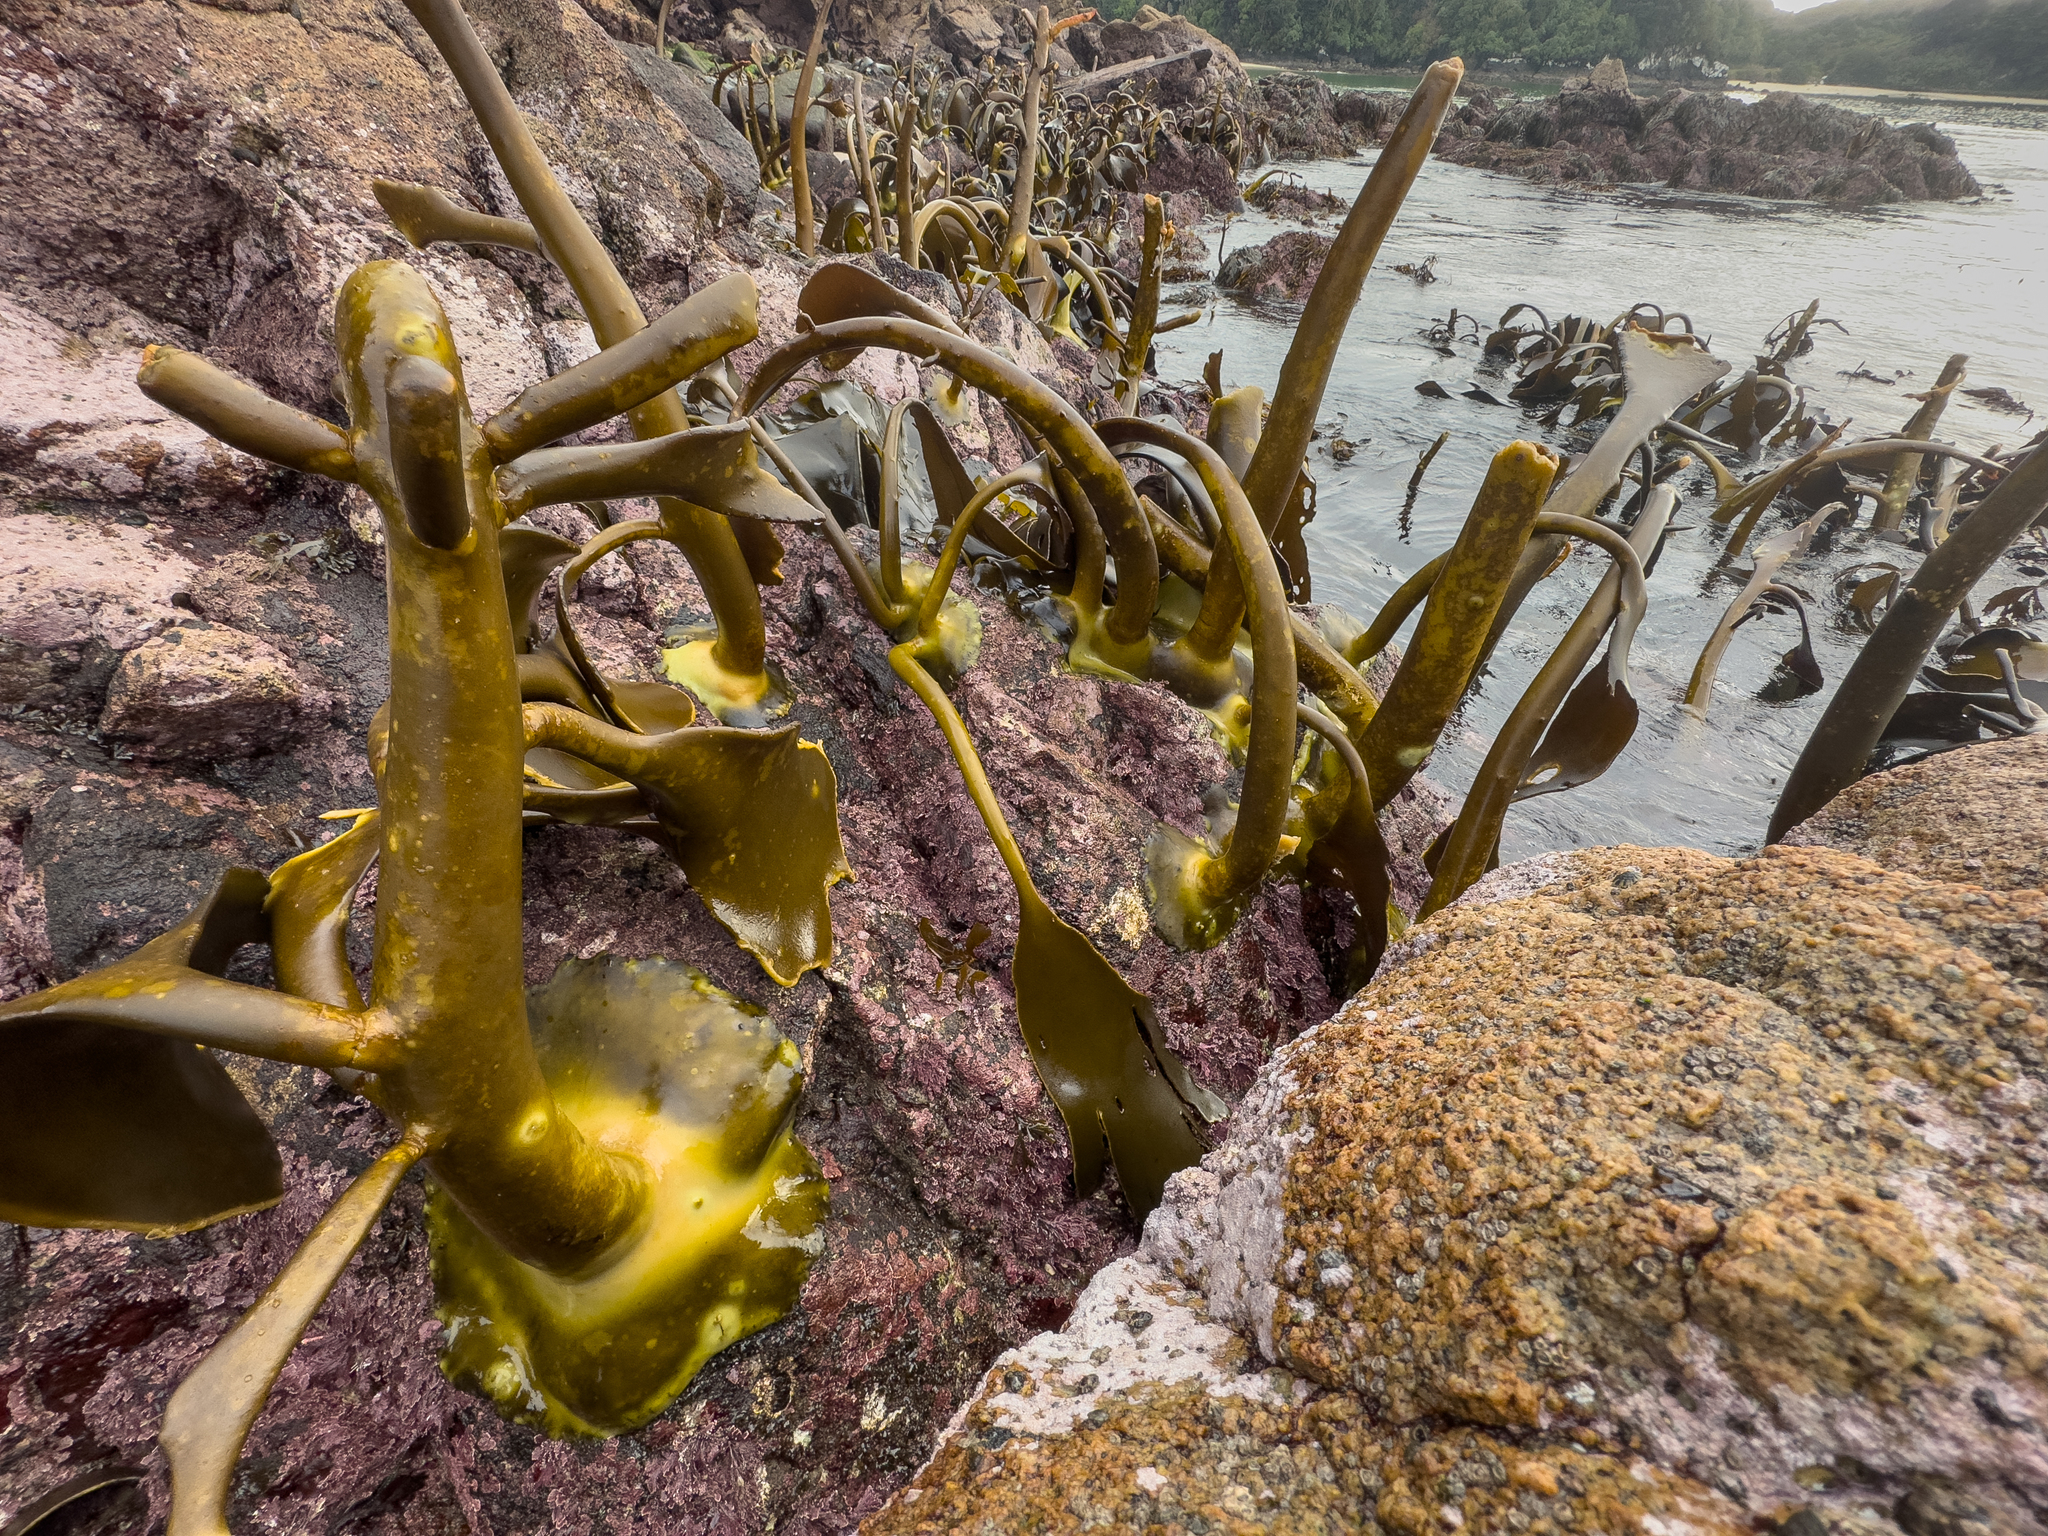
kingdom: Chromista
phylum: Ochrophyta
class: Phaeophyceae
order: Fucales
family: Durvillaeaceae
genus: Durvillaea
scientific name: Durvillaea willana
